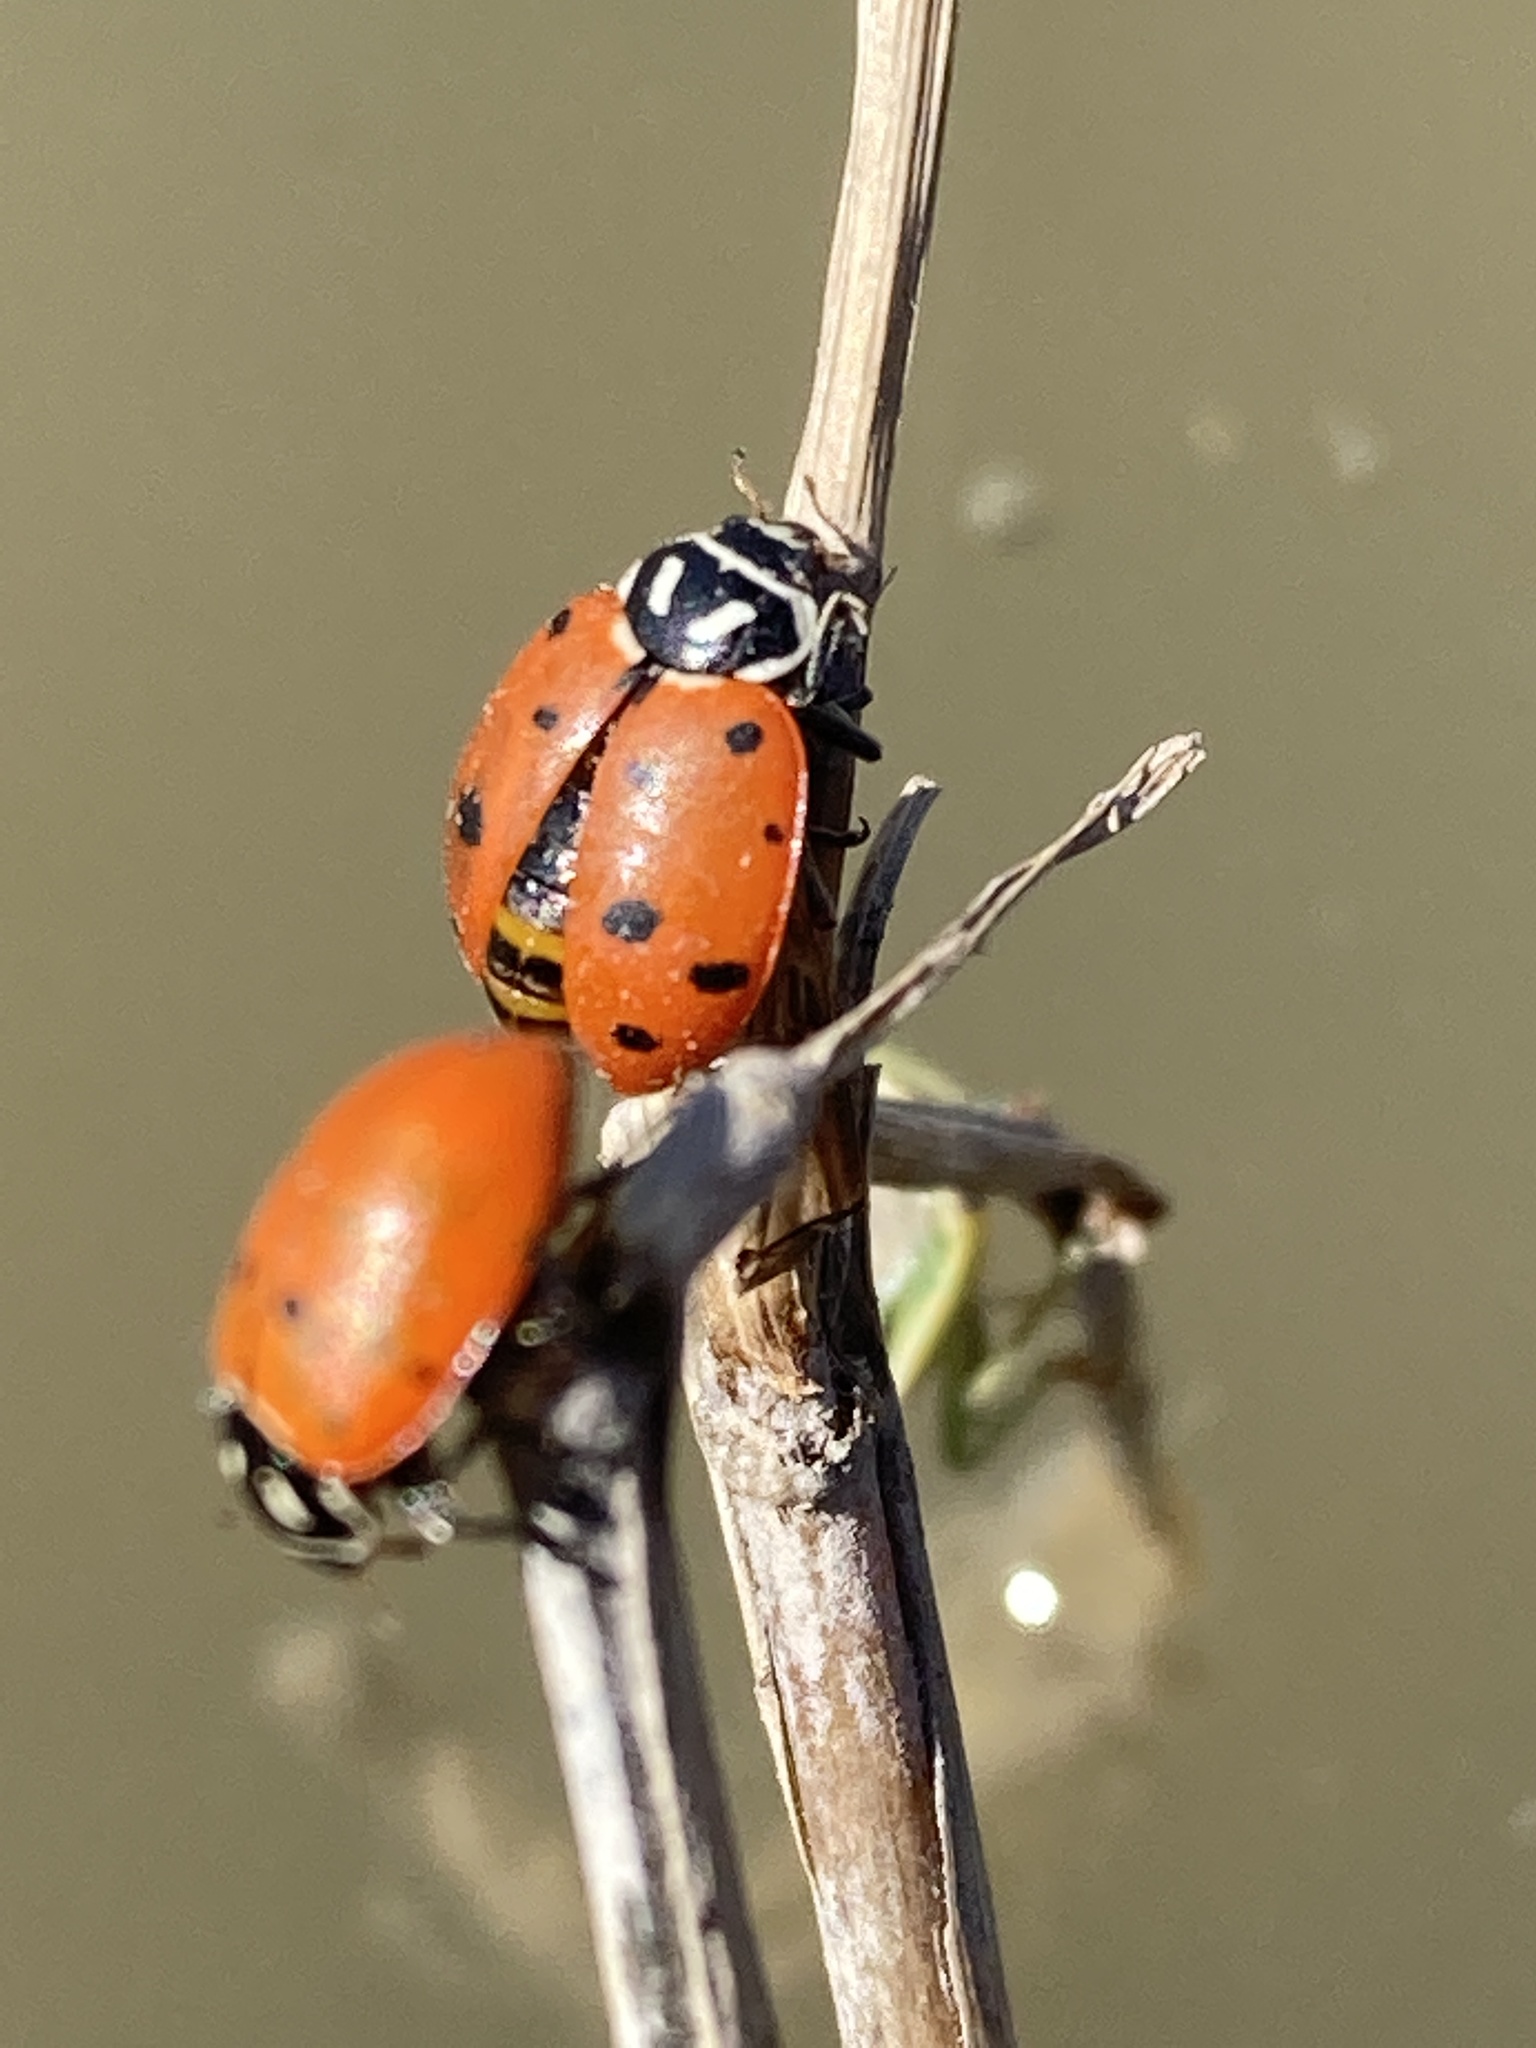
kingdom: Animalia
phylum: Arthropoda
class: Insecta
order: Coleoptera
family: Coccinellidae
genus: Hippodamia
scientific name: Hippodamia convergens
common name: Convergent lady beetle
